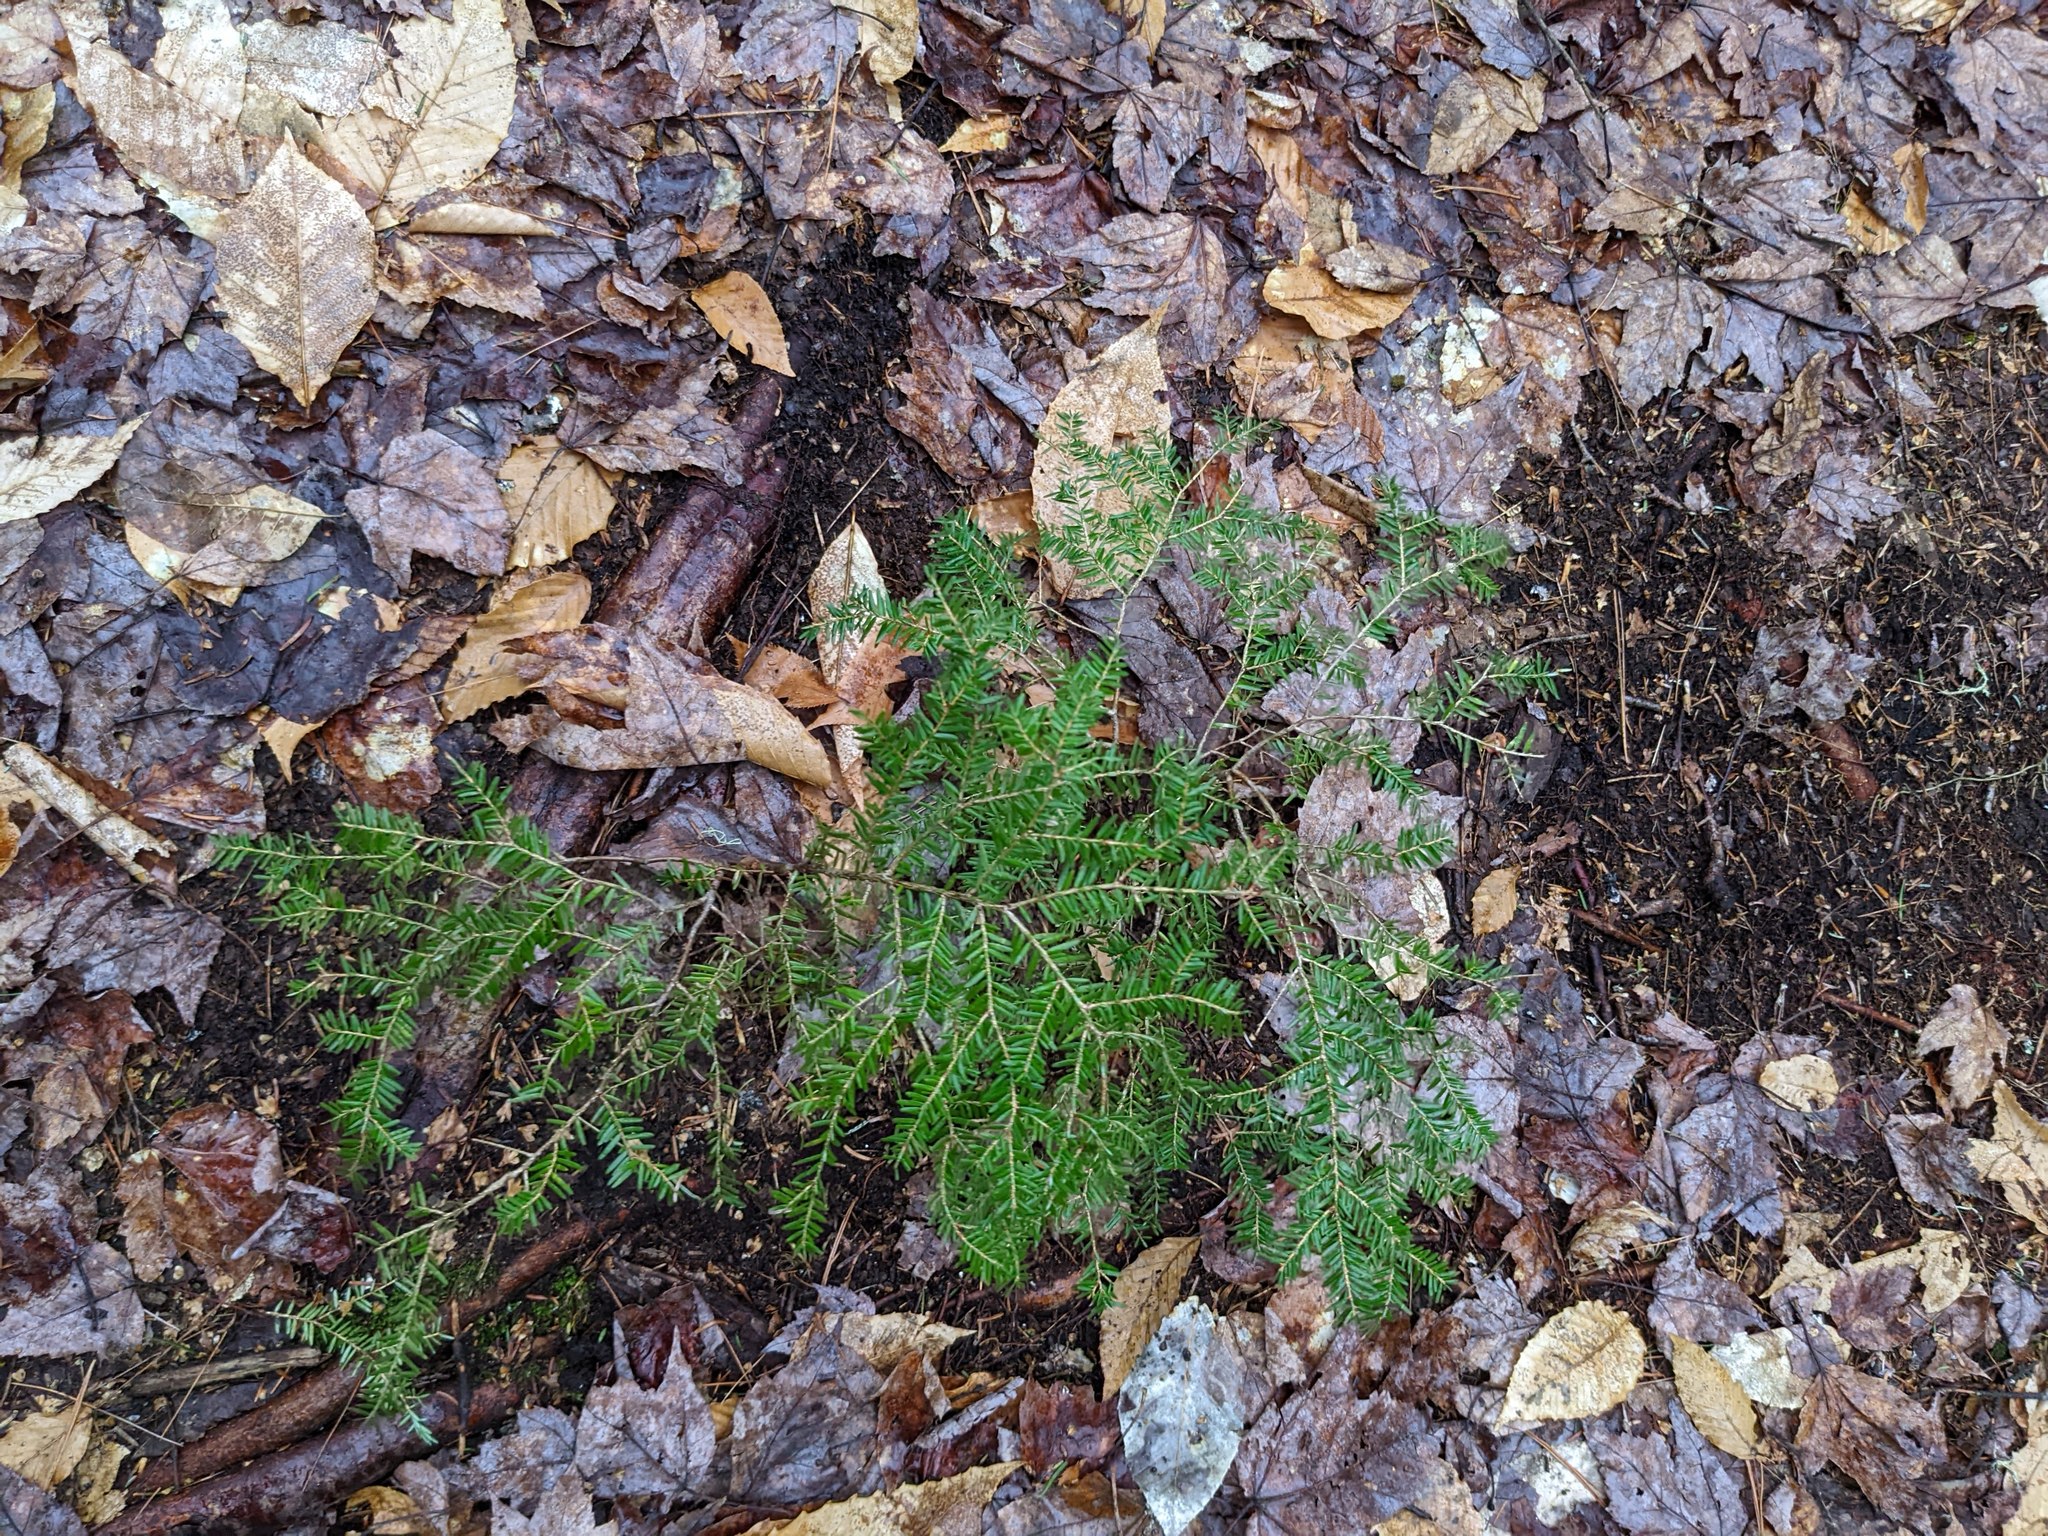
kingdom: Plantae
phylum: Tracheophyta
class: Pinopsida
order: Pinales
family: Pinaceae
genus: Tsuga
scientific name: Tsuga canadensis
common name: Eastern hemlock
